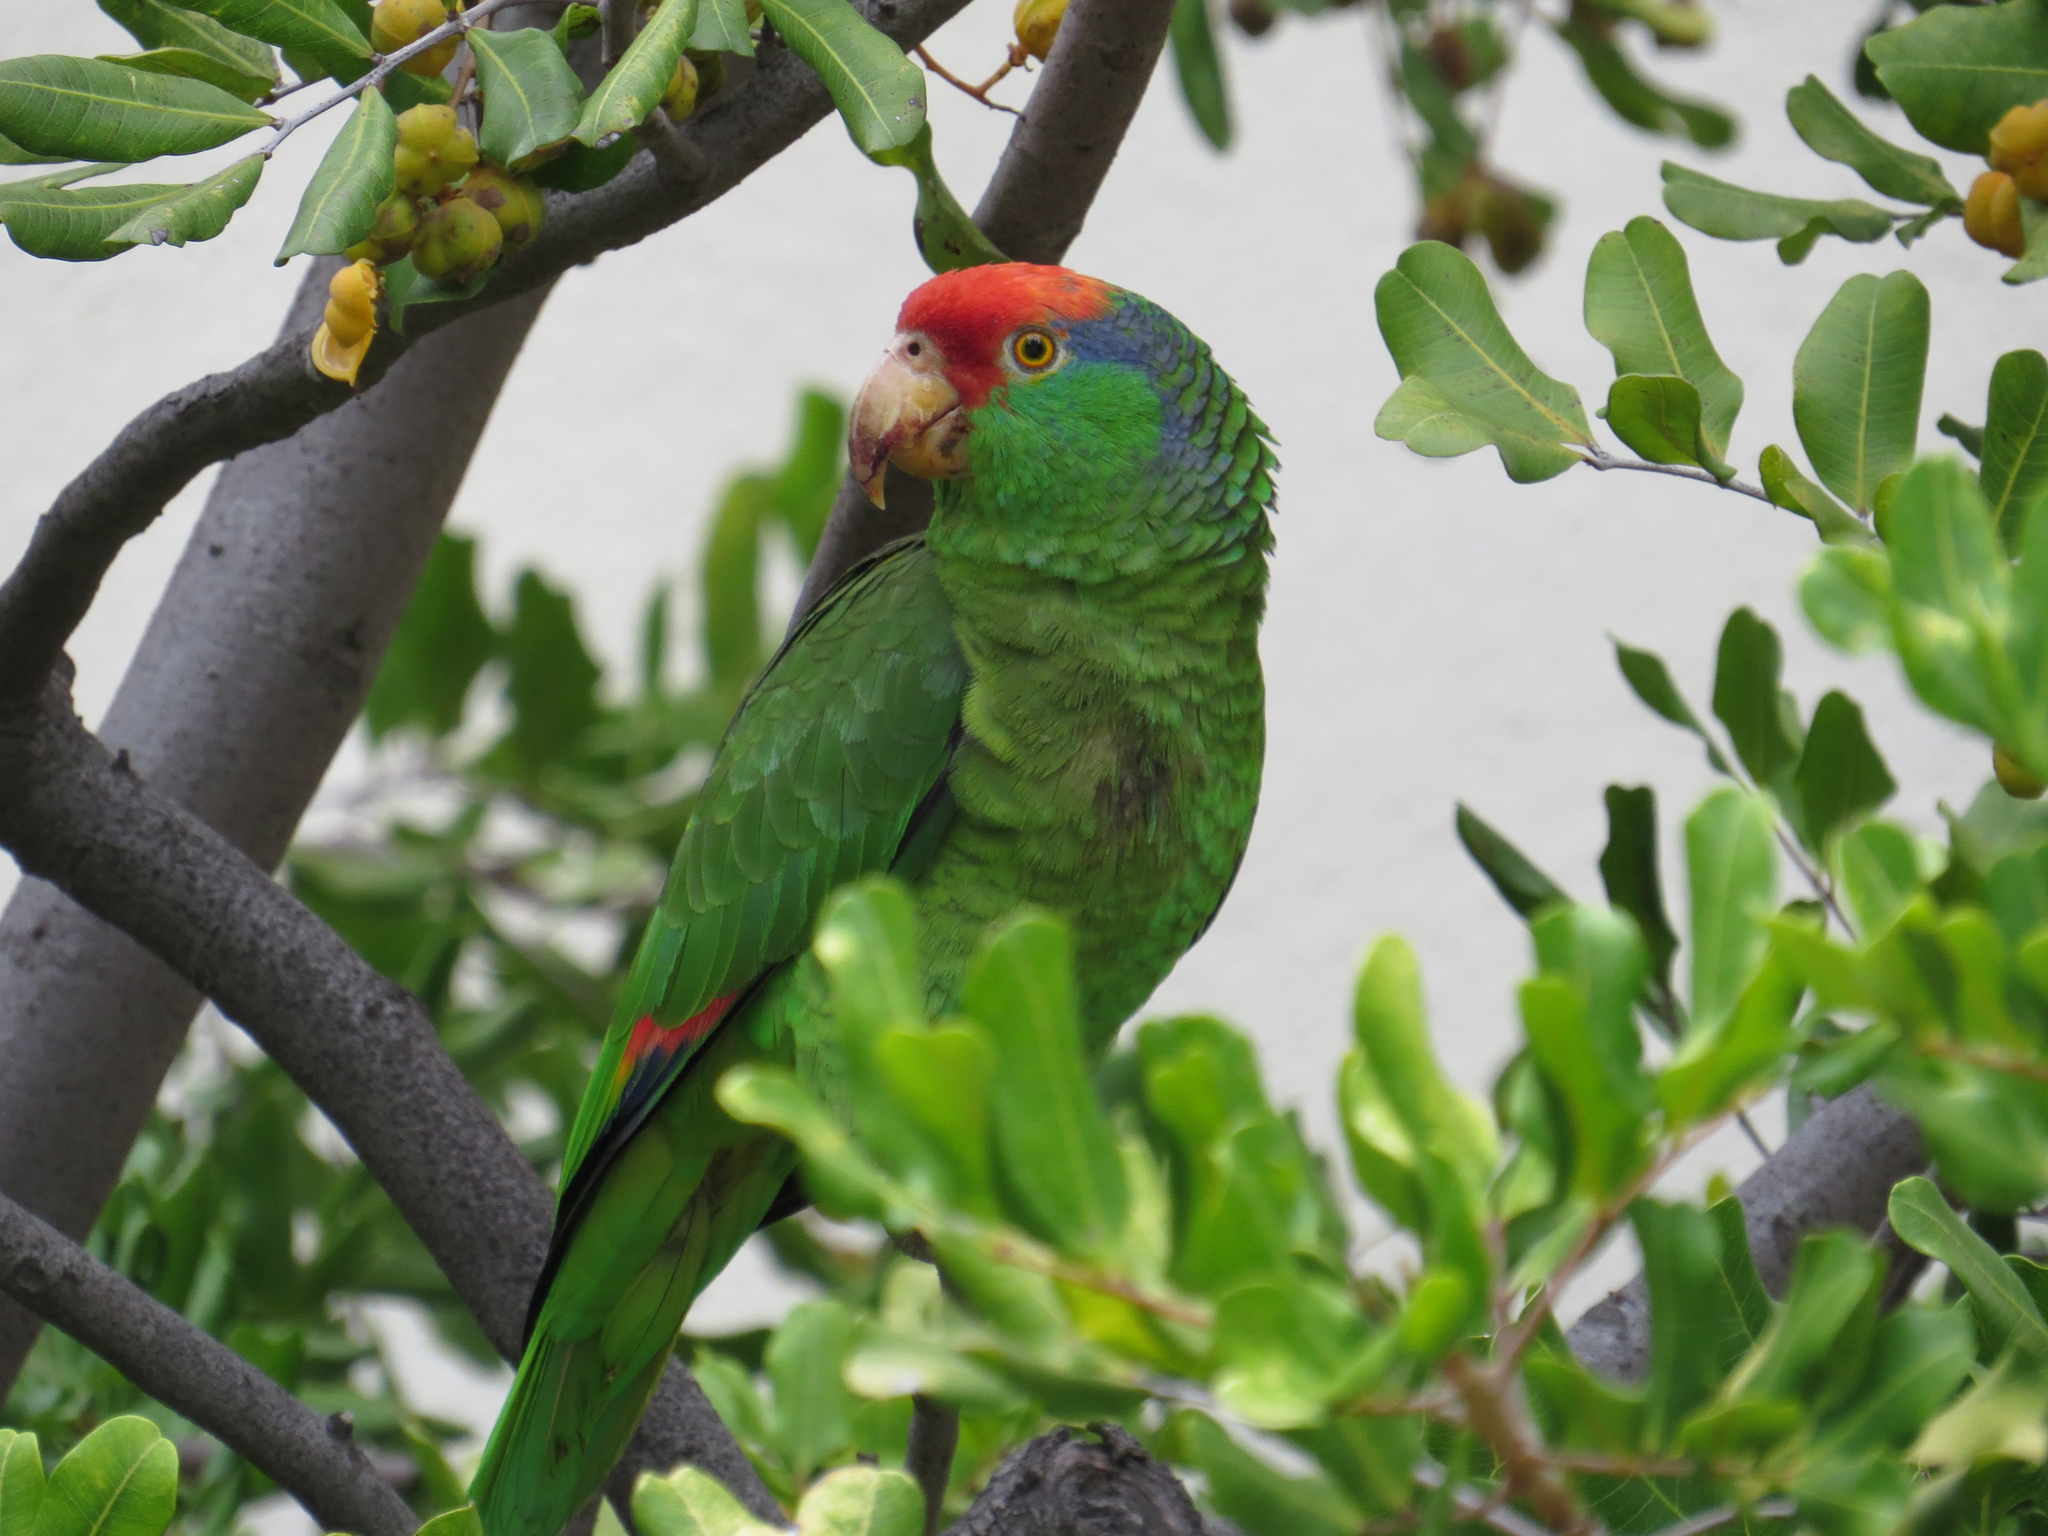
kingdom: Animalia
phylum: Chordata
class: Aves
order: Psittaciformes
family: Psittacidae
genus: Amazona
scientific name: Amazona viridigenalis
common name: Red-crowned amazon
